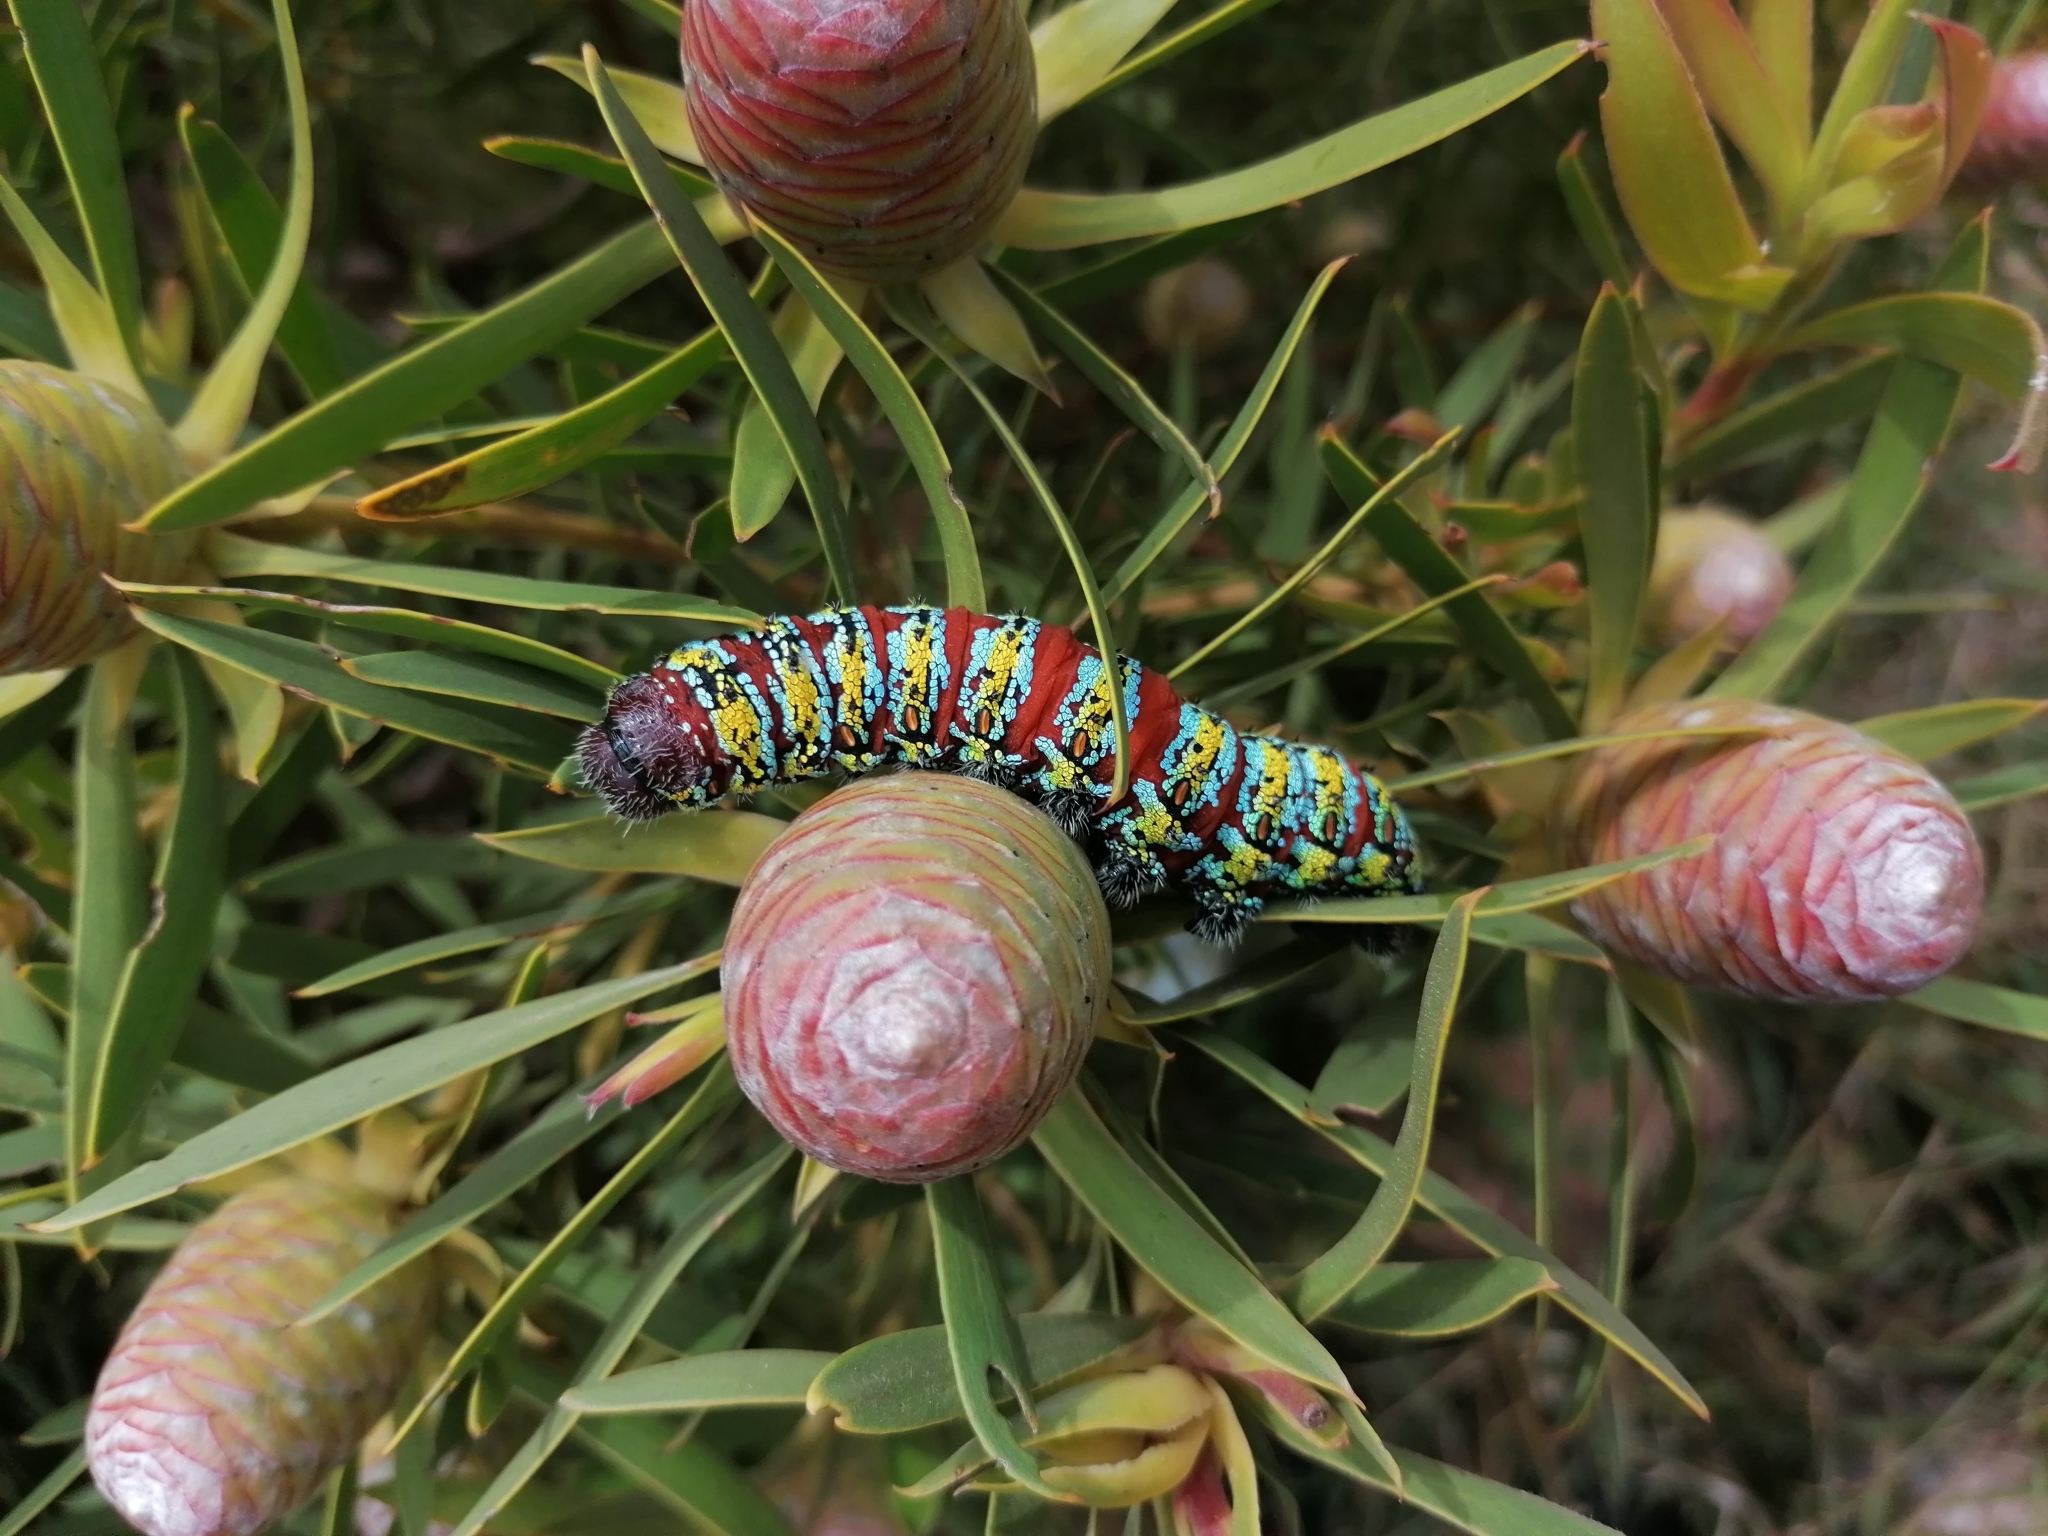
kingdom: Animalia
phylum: Arthropoda
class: Insecta
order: Lepidoptera
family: Saturniidae
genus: Nudaurelia
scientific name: Nudaurelia cytherea
